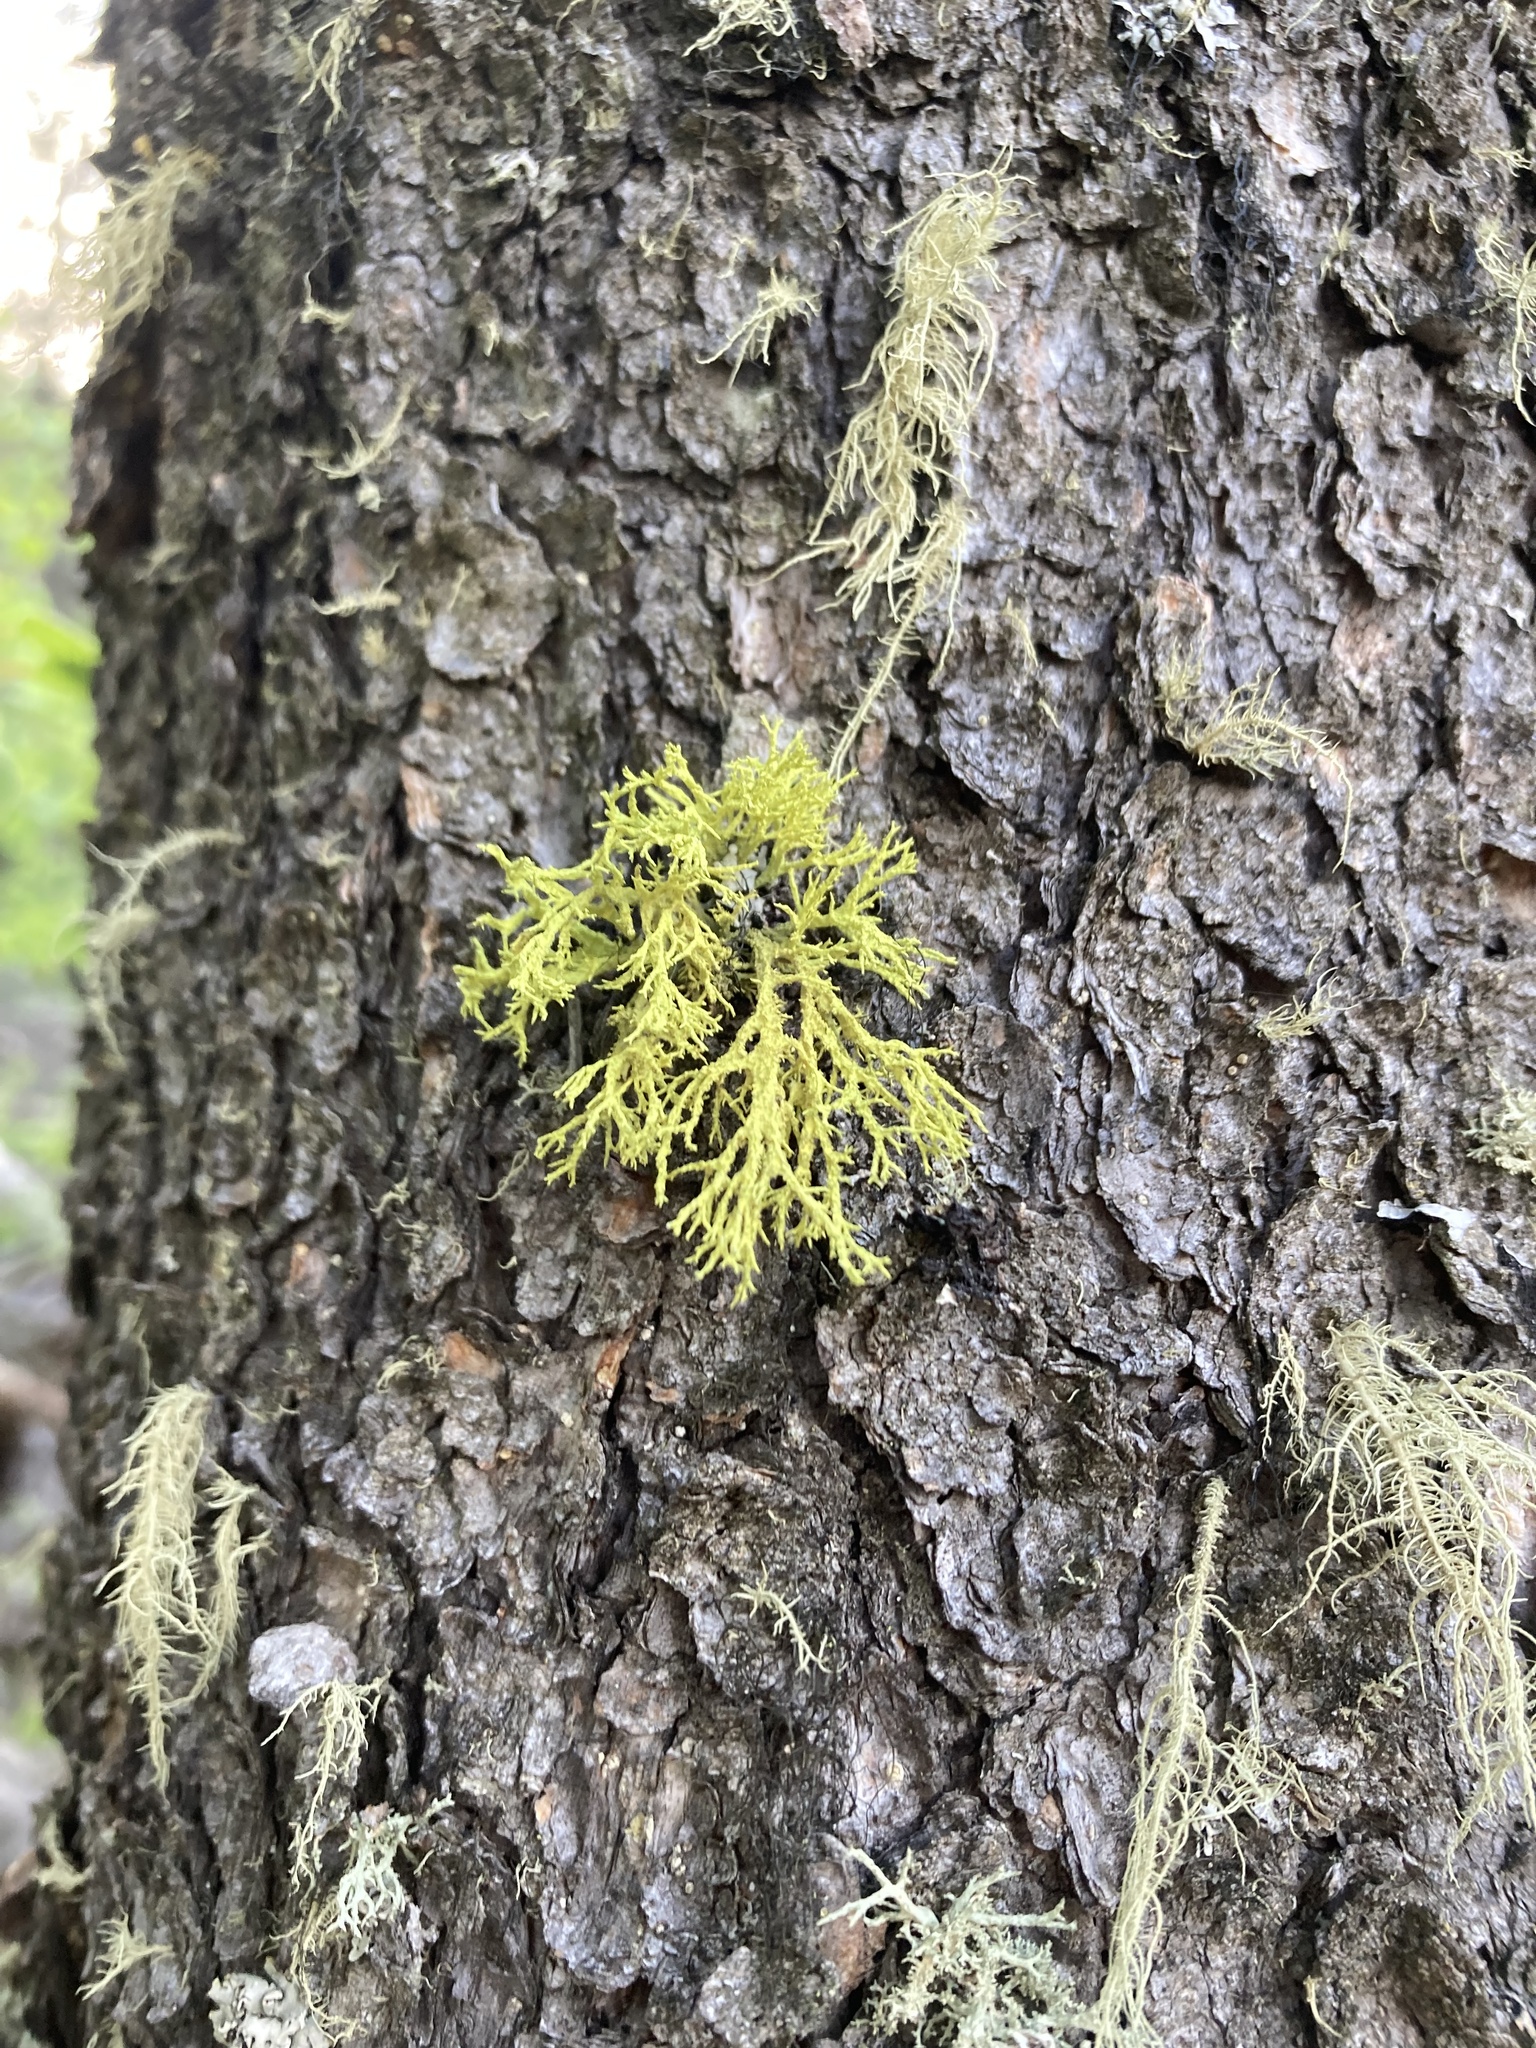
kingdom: Fungi
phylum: Ascomycota
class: Lecanoromycetes
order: Lecanorales
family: Parmeliaceae
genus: Letharia
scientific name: Letharia vulpina
